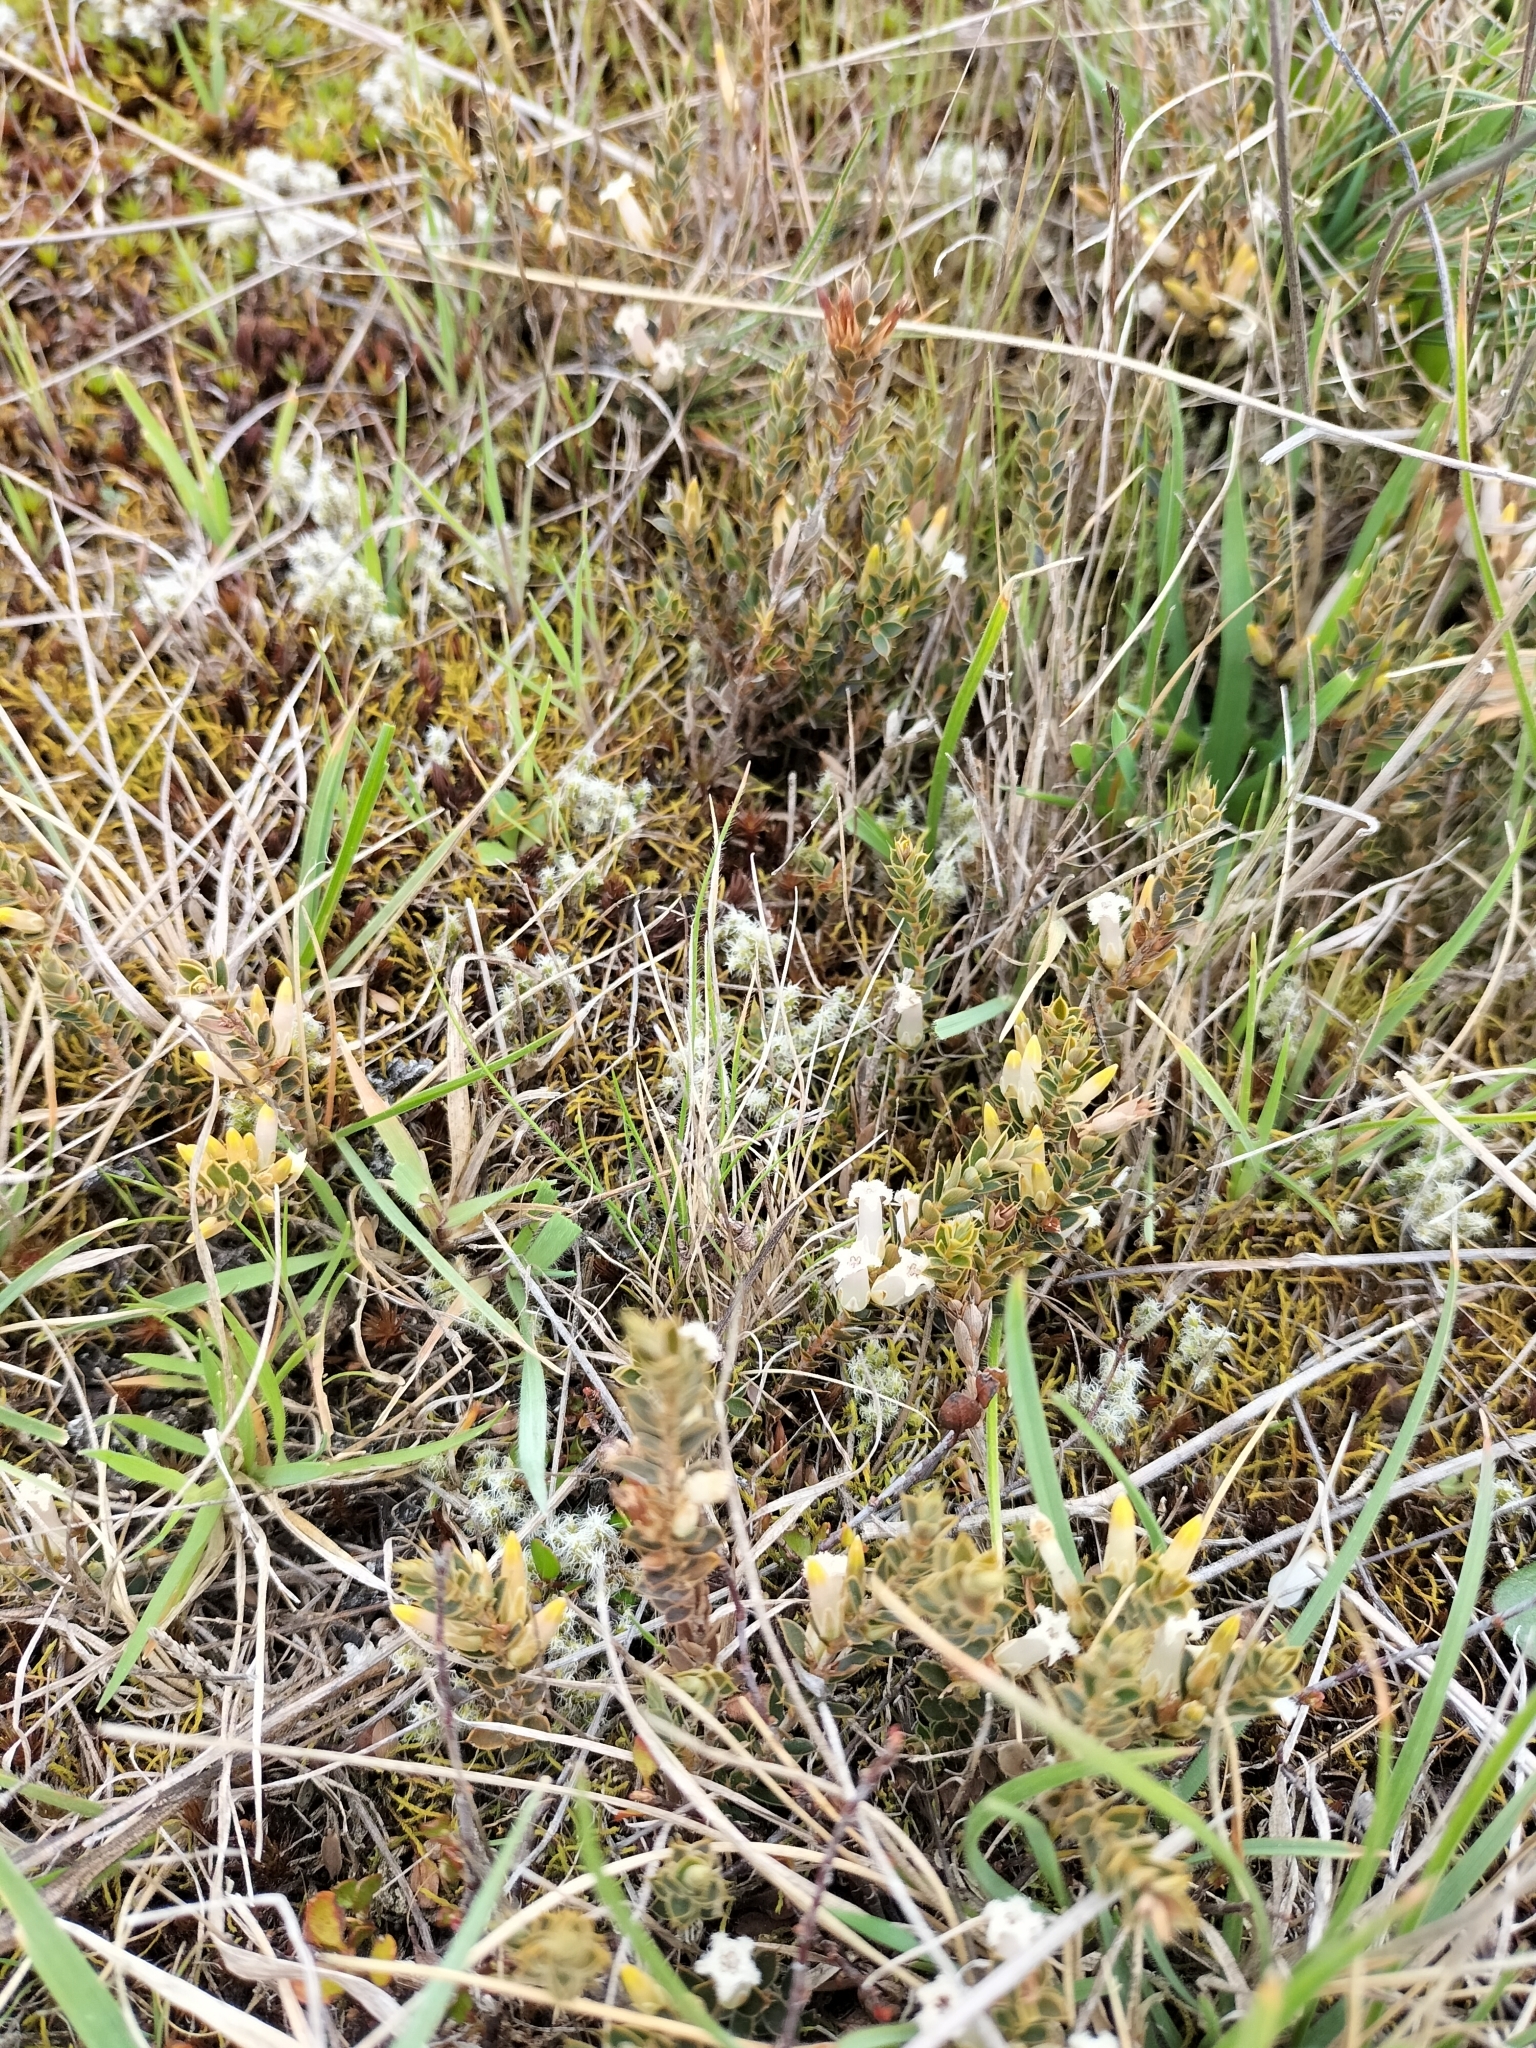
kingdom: Plantae
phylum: Tracheophyta
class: Magnoliopsida
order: Ericales
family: Ericaceae
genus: Styphelia
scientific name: Styphelia nesophila
